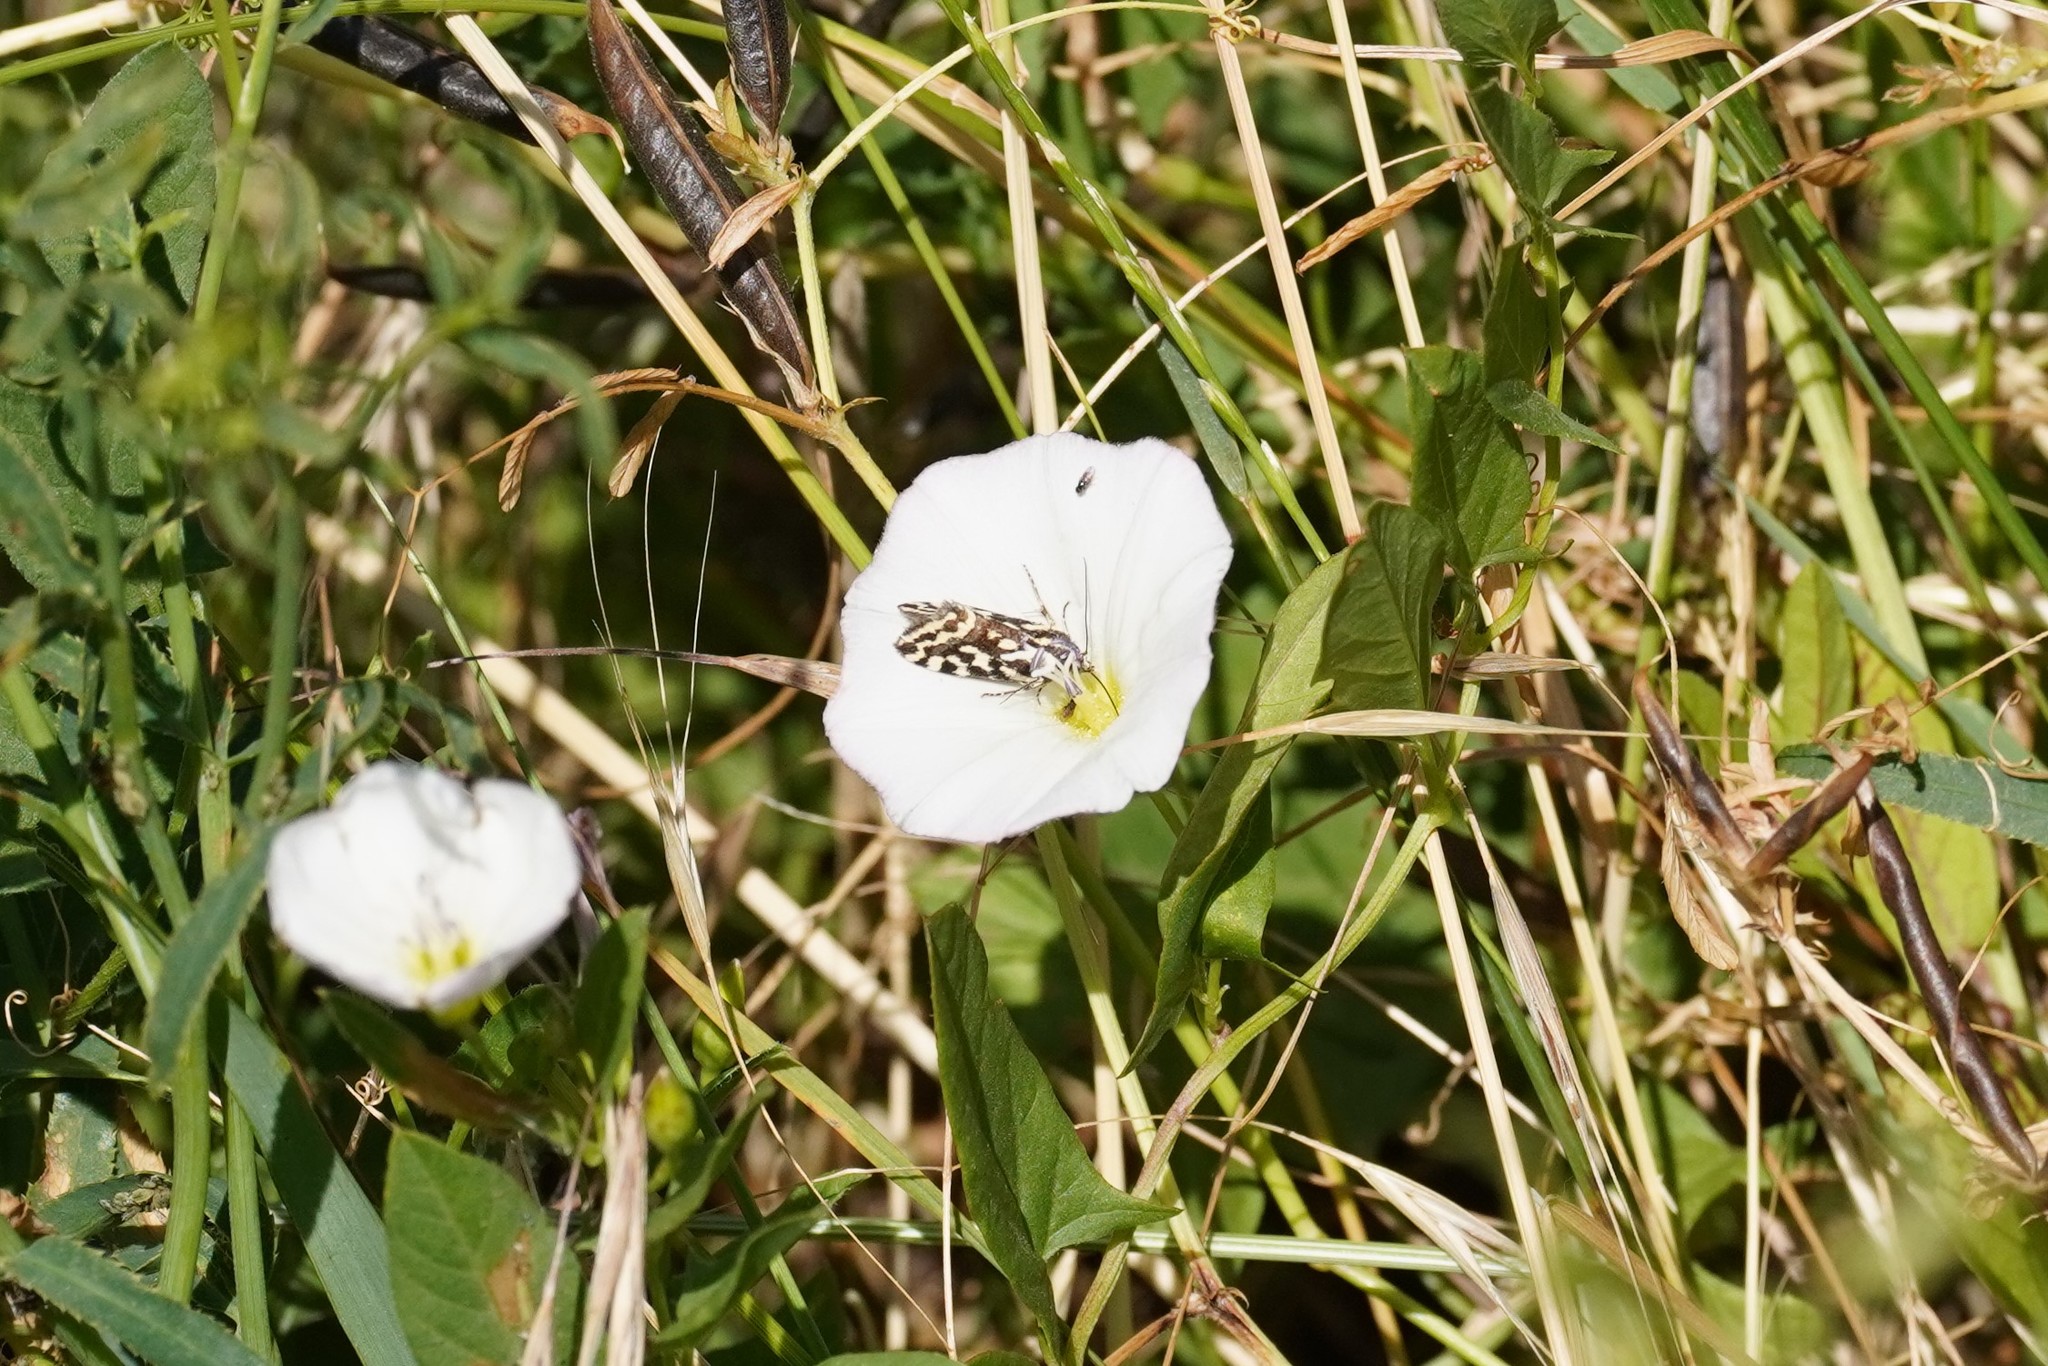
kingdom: Animalia
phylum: Arthropoda
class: Insecta
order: Lepidoptera
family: Noctuidae
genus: Acontia
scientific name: Acontia trabealis
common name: Spotted sulphur
